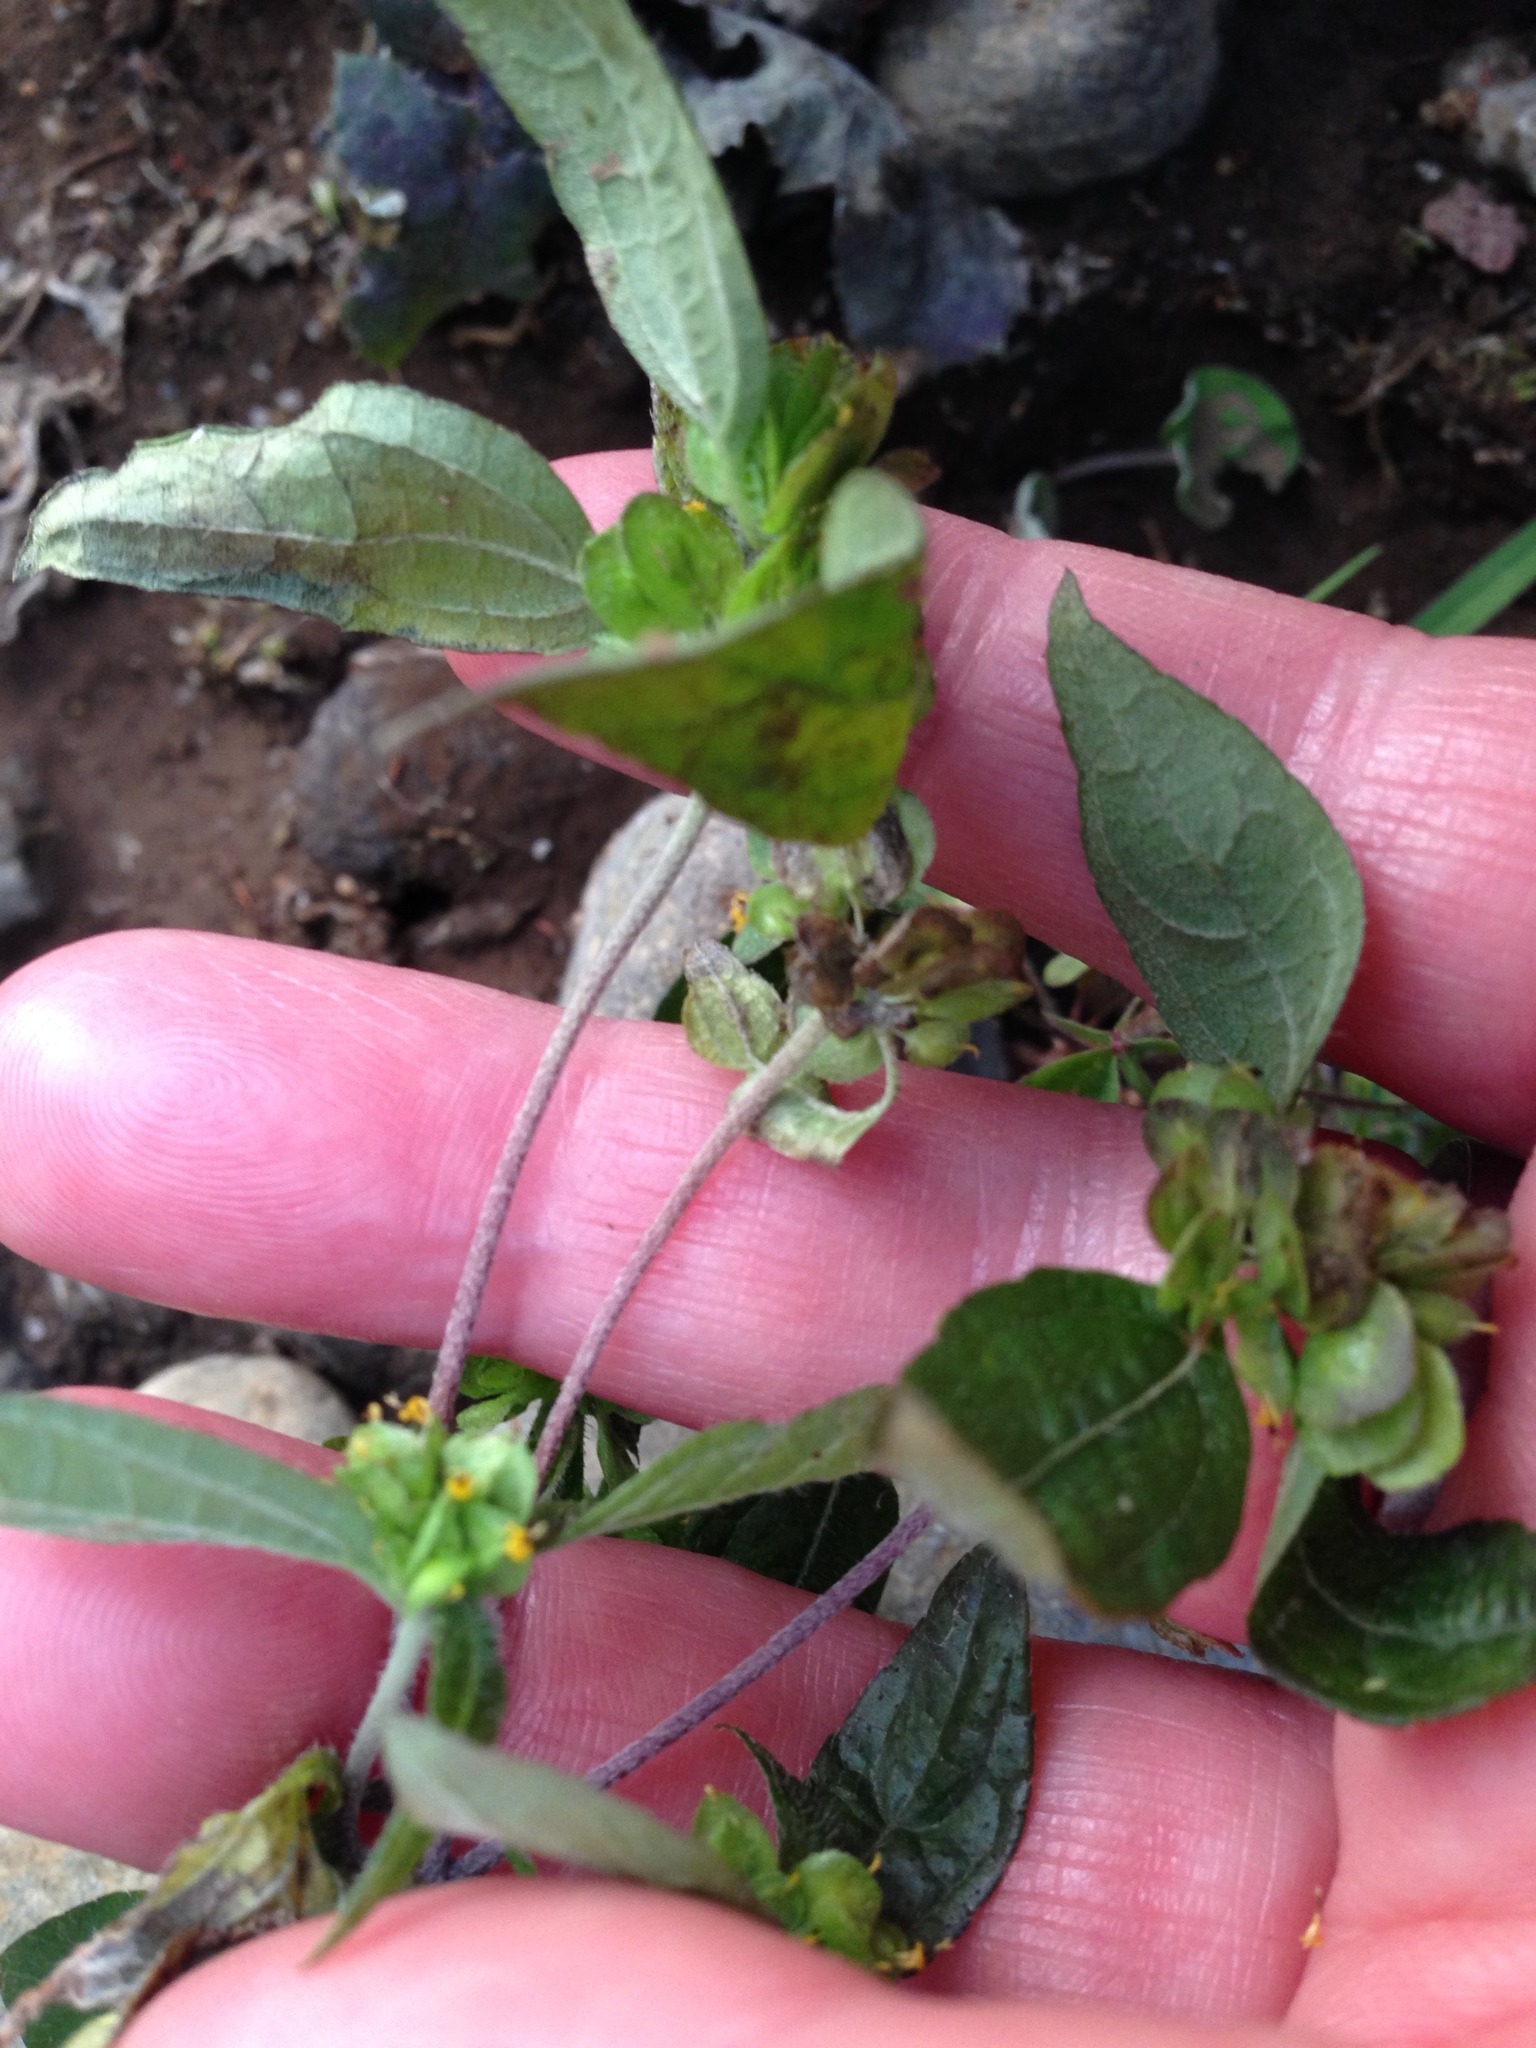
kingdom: Plantae
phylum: Tracheophyta
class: Magnoliopsida
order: Asterales
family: Asteraceae
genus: Delilia
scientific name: Delilia biflora
